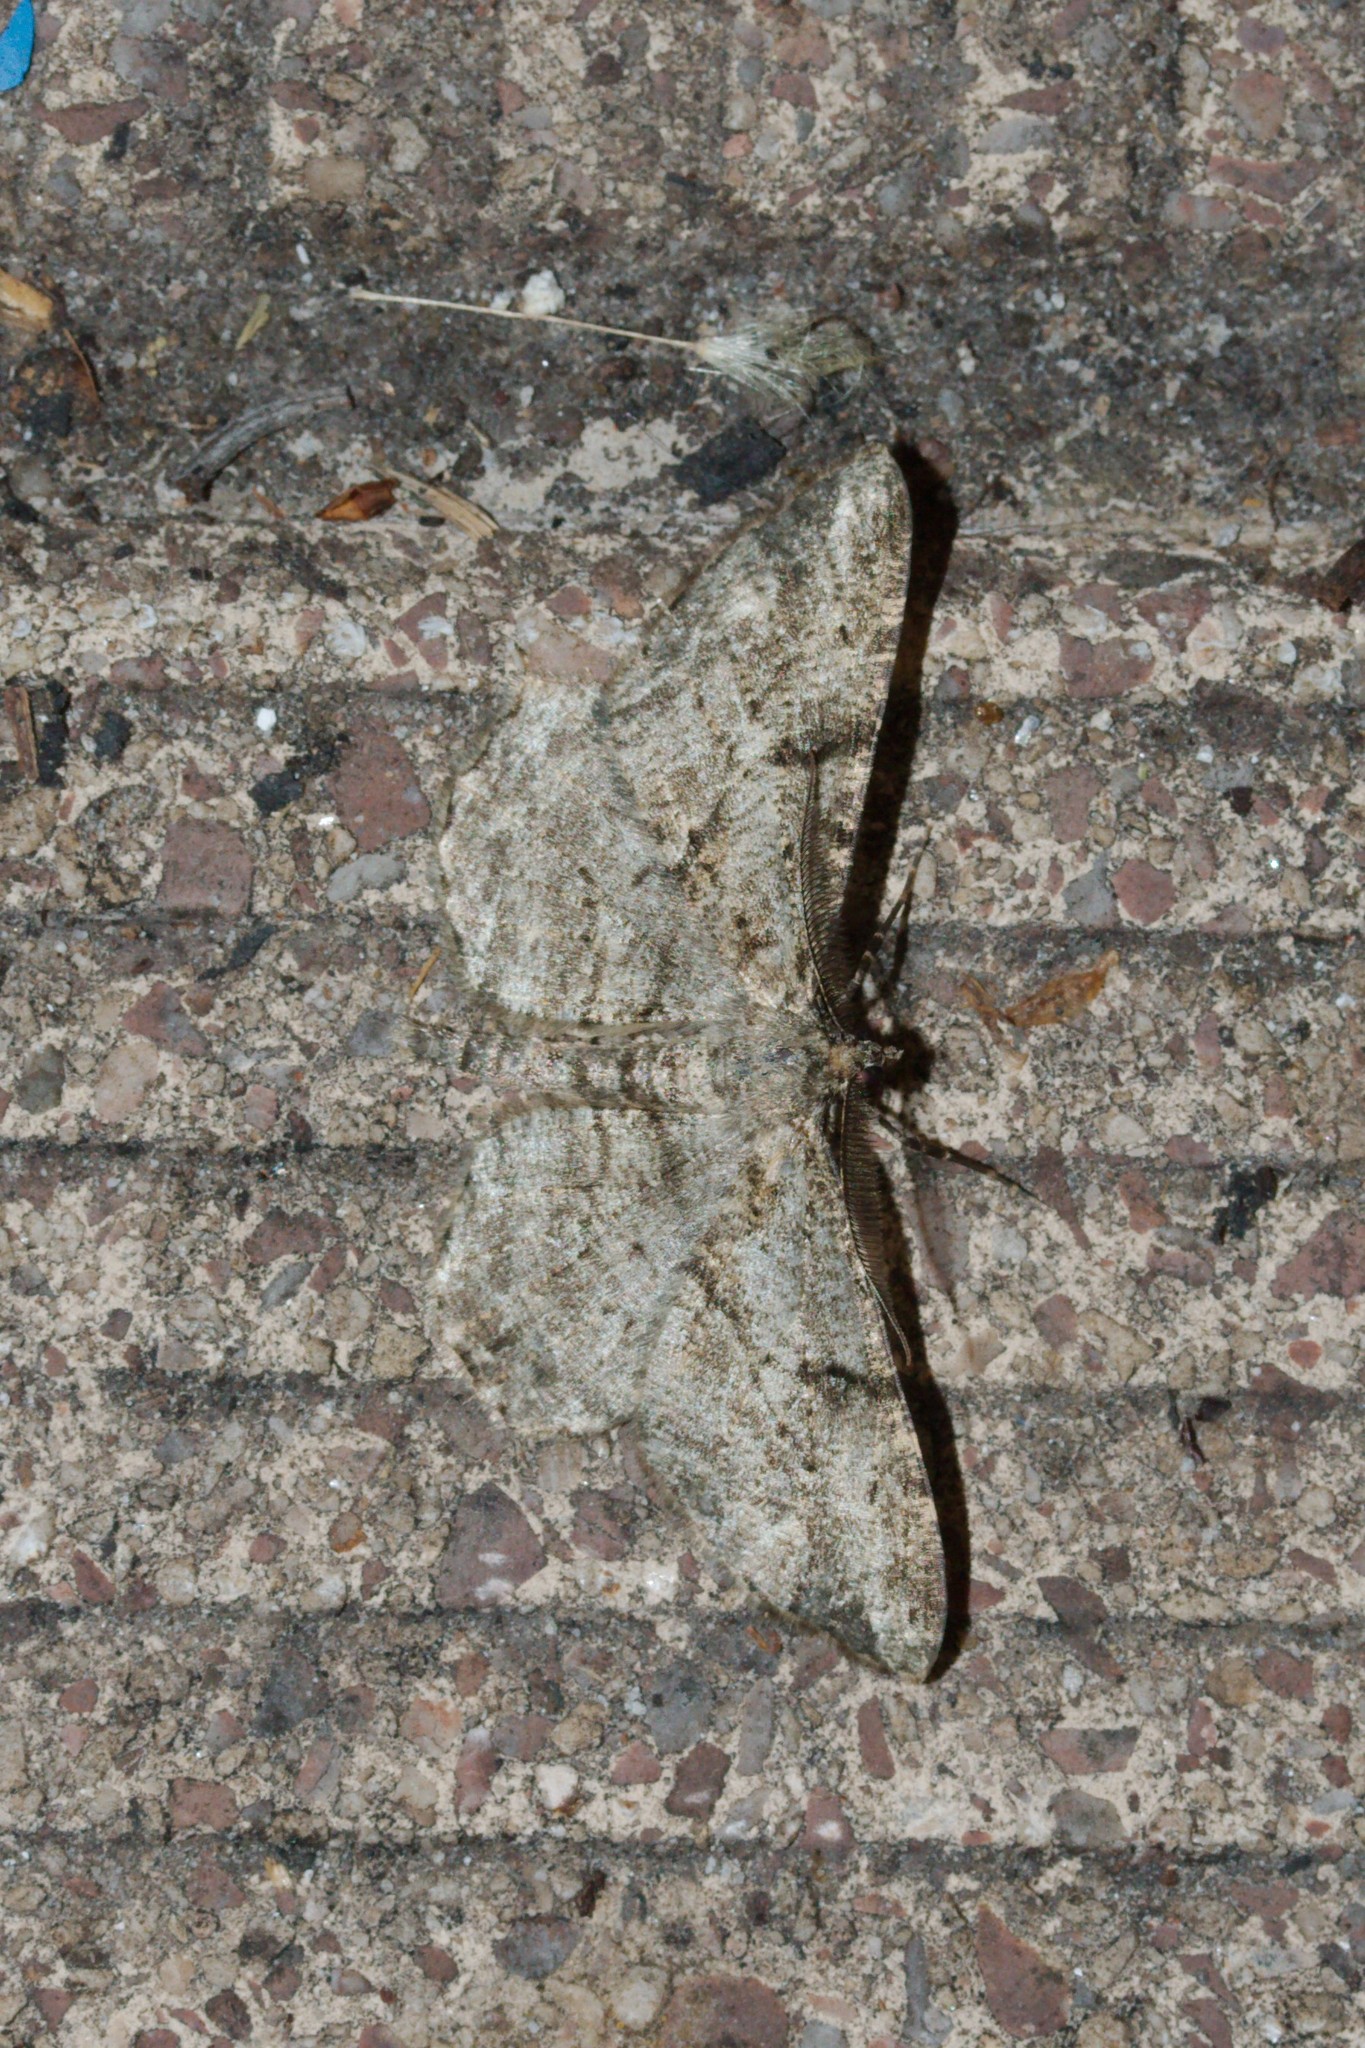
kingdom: Animalia
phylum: Arthropoda
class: Insecta
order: Lepidoptera
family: Geometridae
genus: Peribatodes
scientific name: Peribatodes rhomboidaria
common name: Willow beauty
